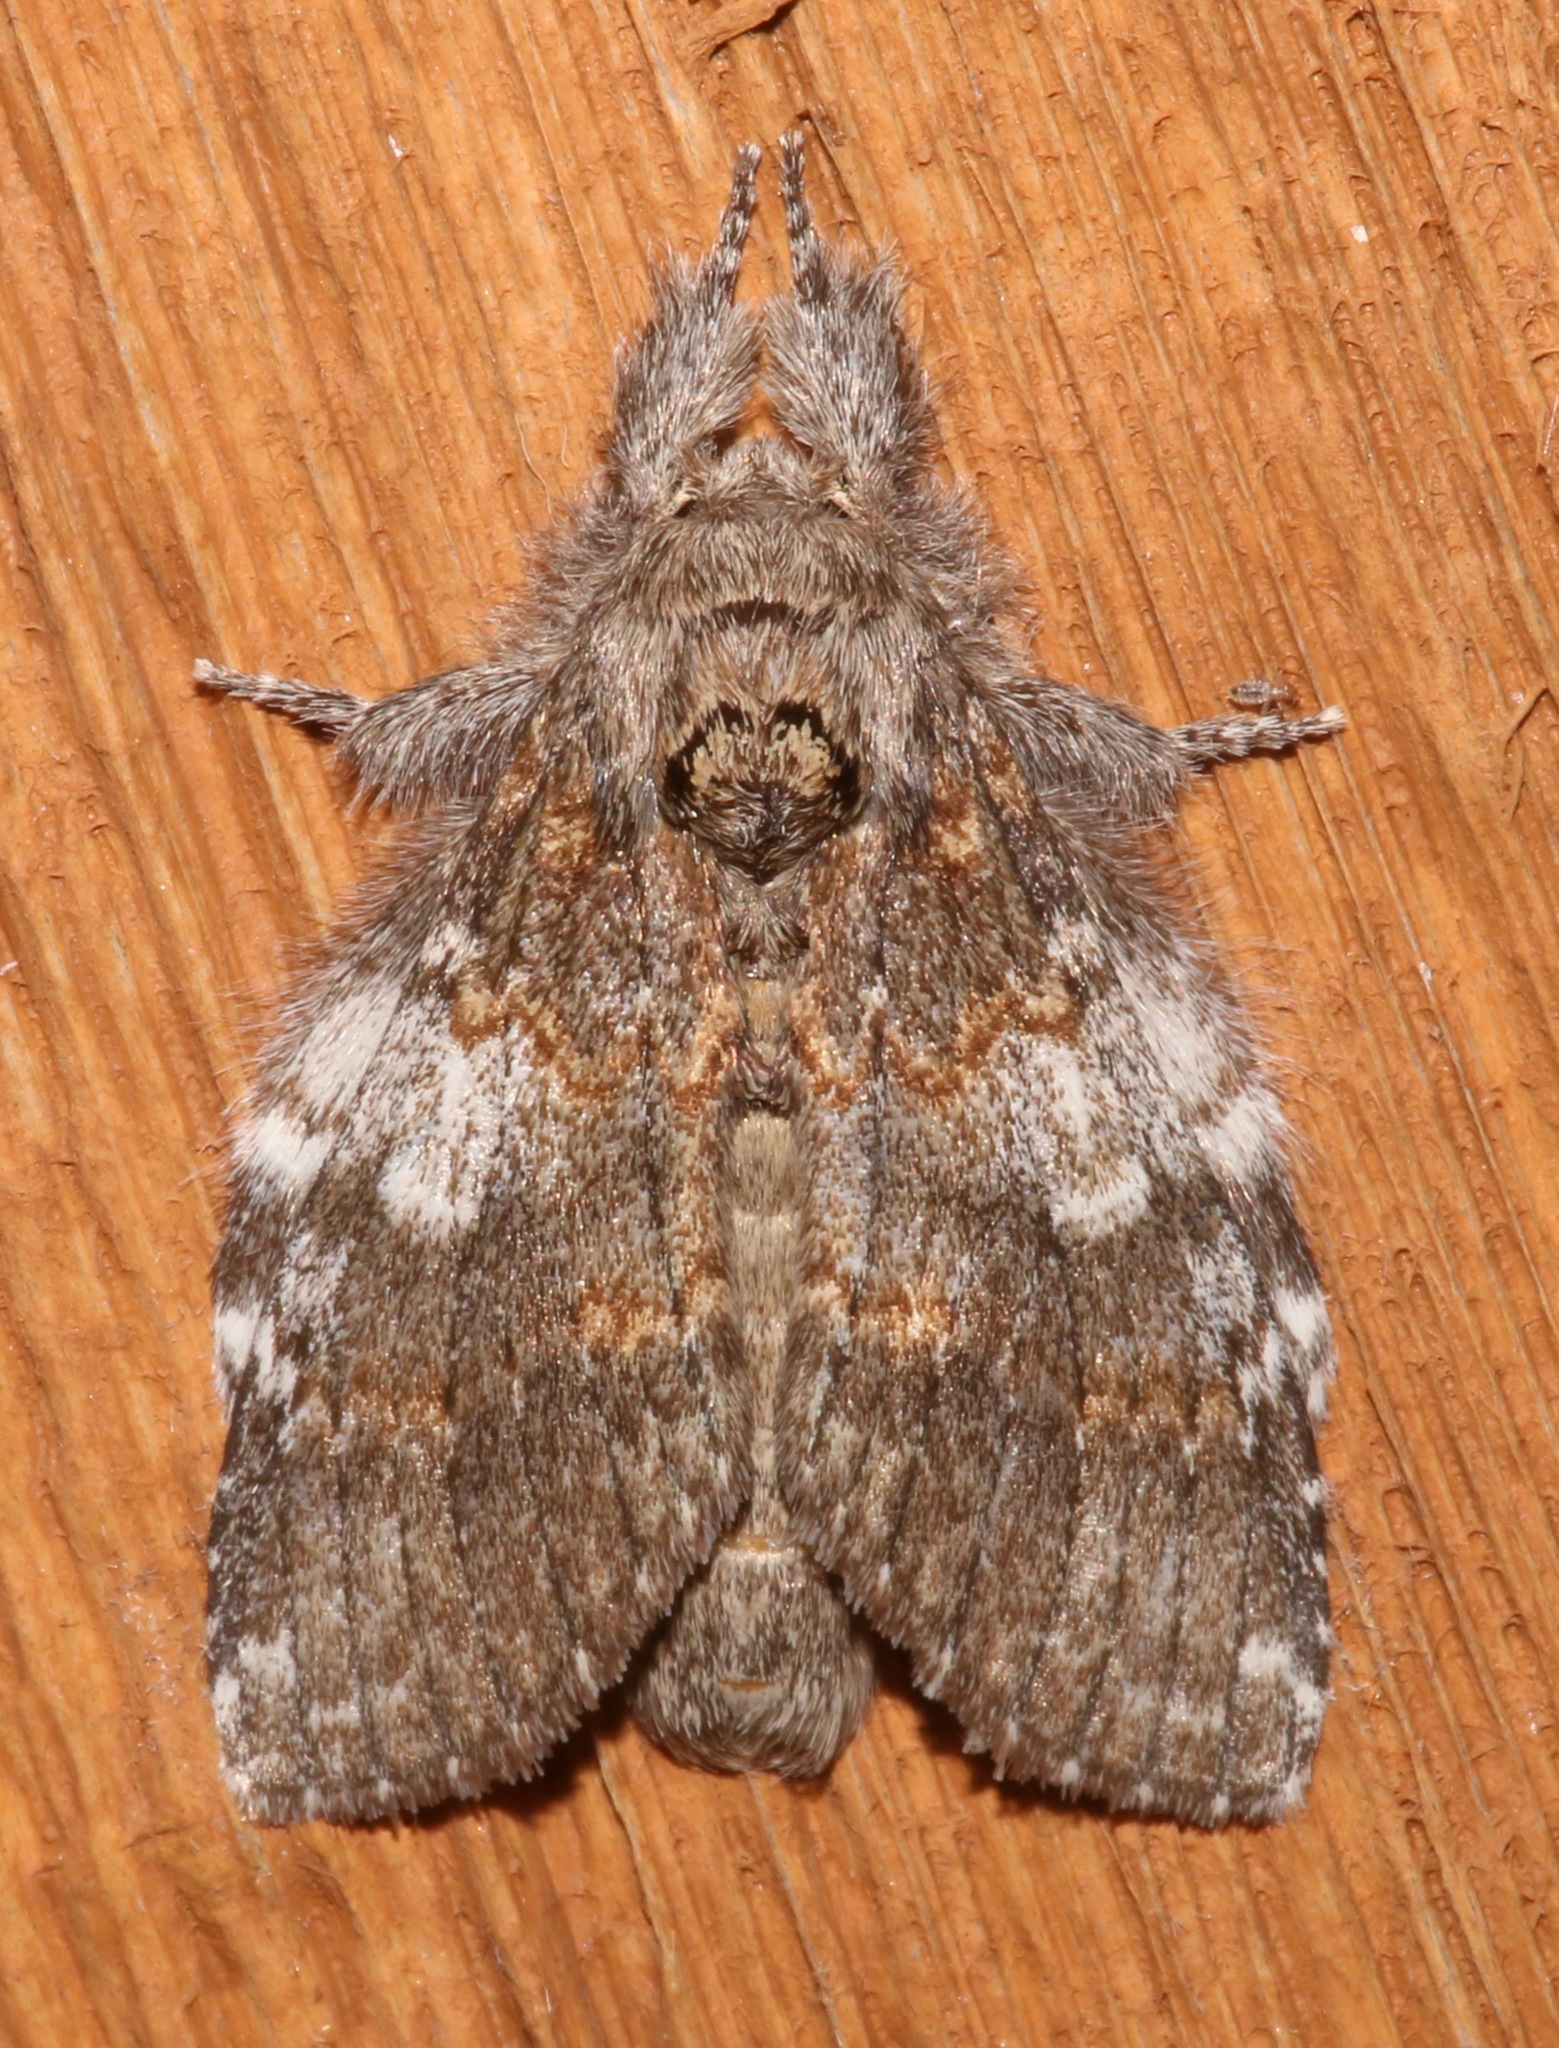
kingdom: Animalia
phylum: Arthropoda
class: Insecta
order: Lepidoptera
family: Notodontidae
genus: Peridea
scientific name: Peridea angulosa
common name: Angulose prominent
